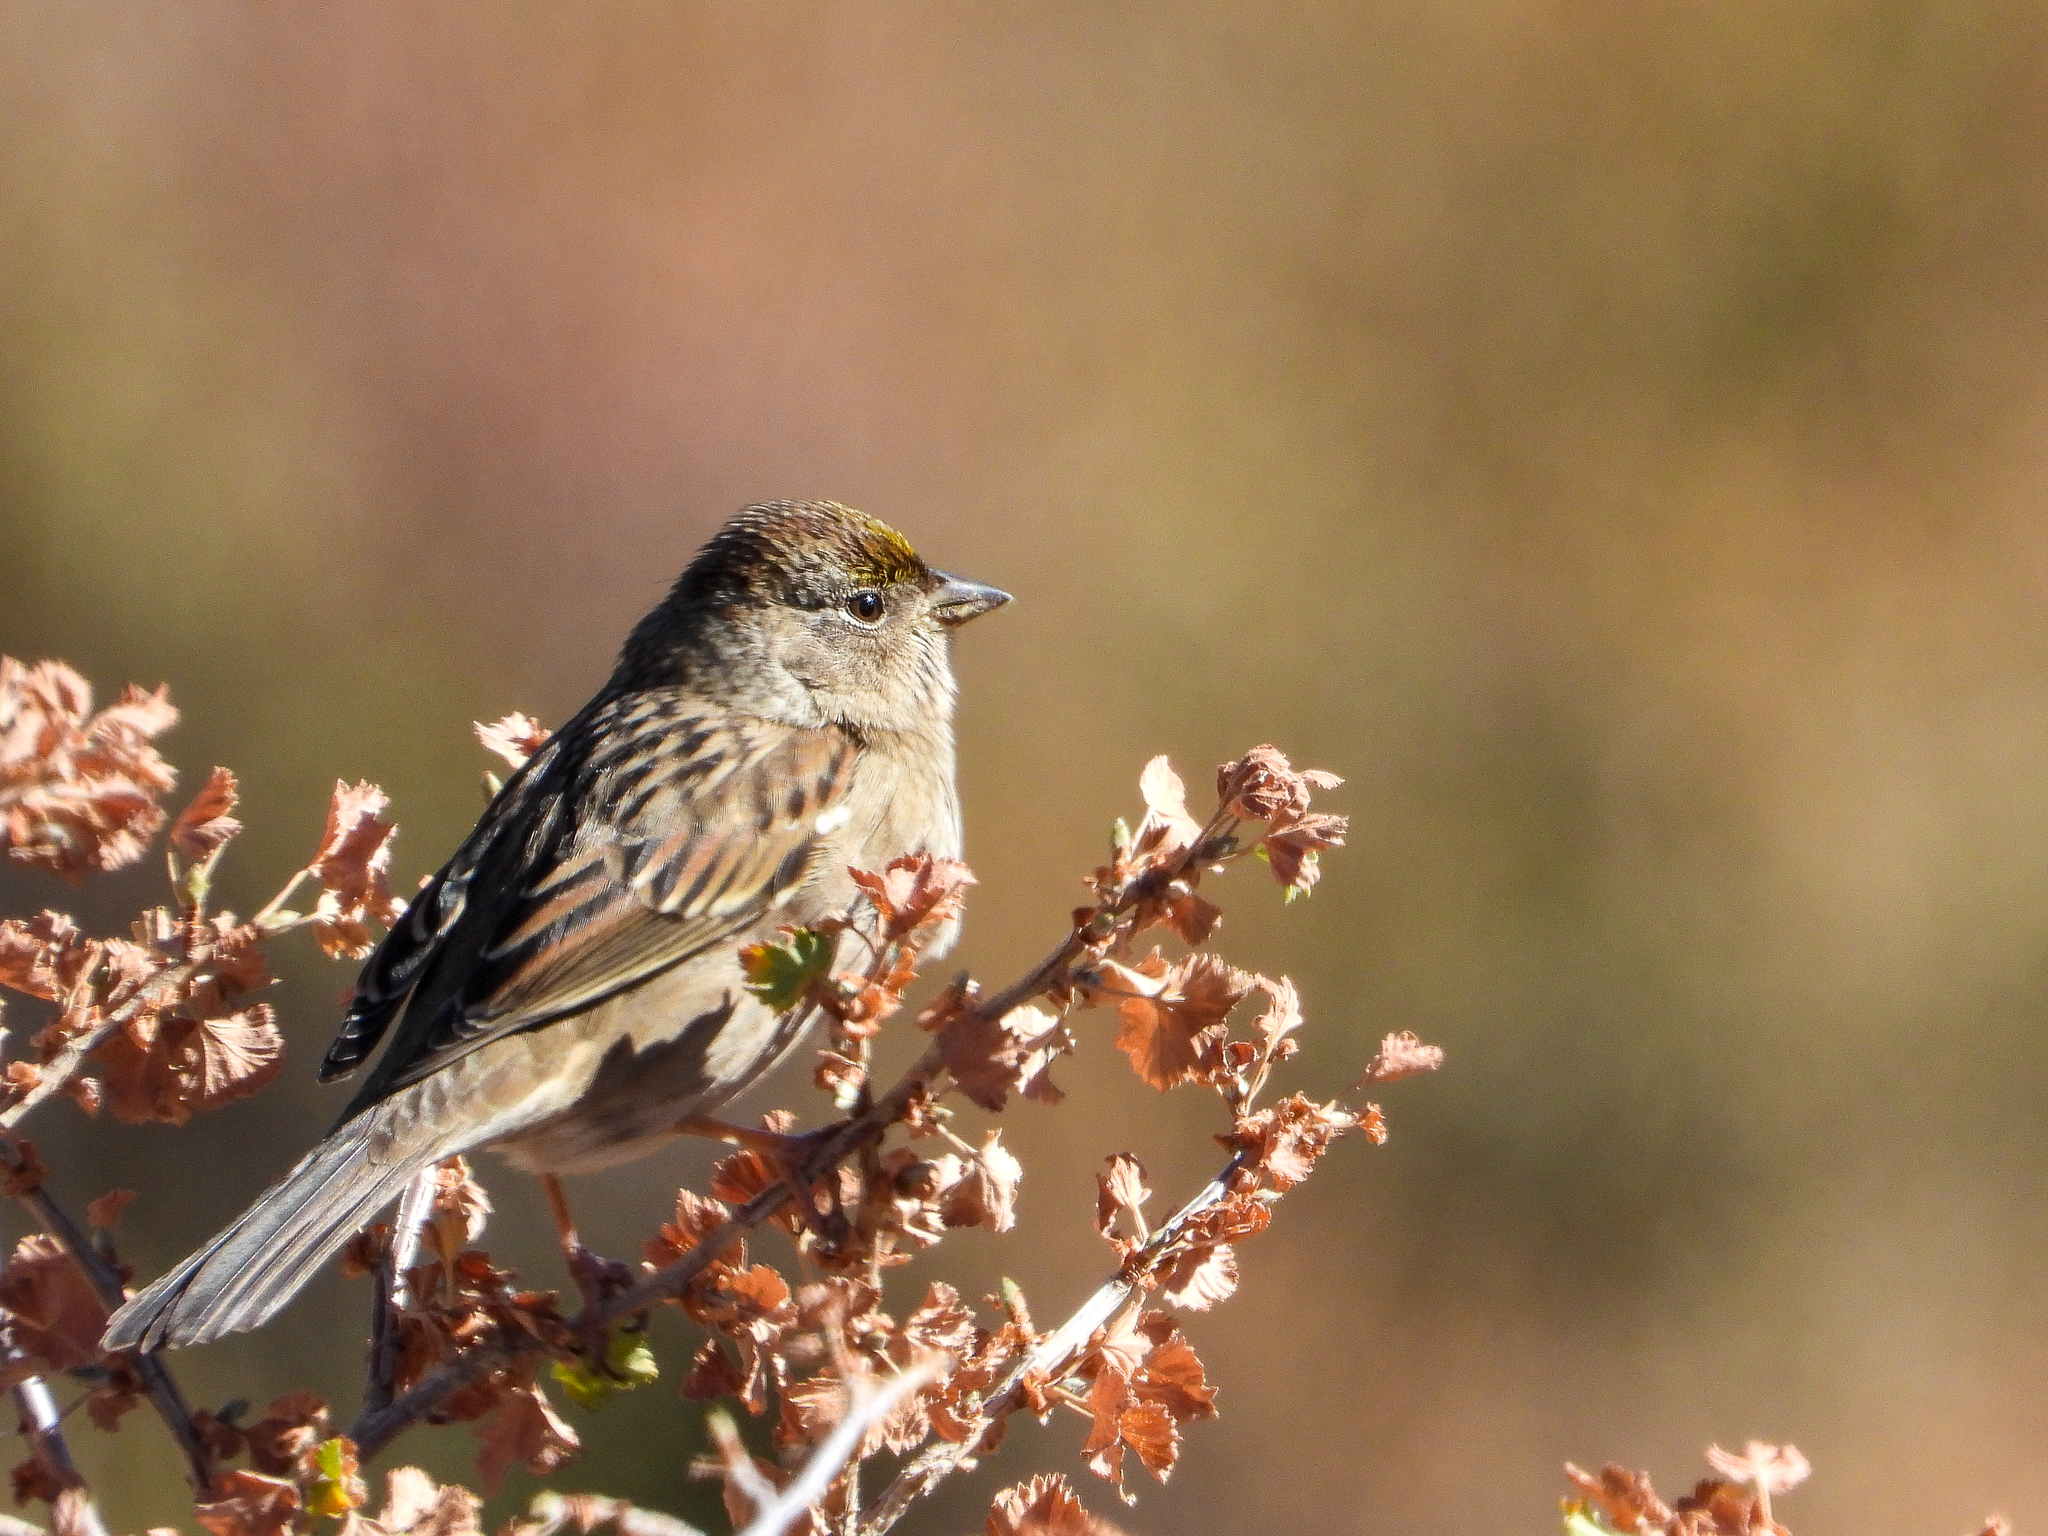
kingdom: Animalia
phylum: Chordata
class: Aves
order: Passeriformes
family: Passerellidae
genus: Zonotrichia
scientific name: Zonotrichia atricapilla
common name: Golden-crowned sparrow
